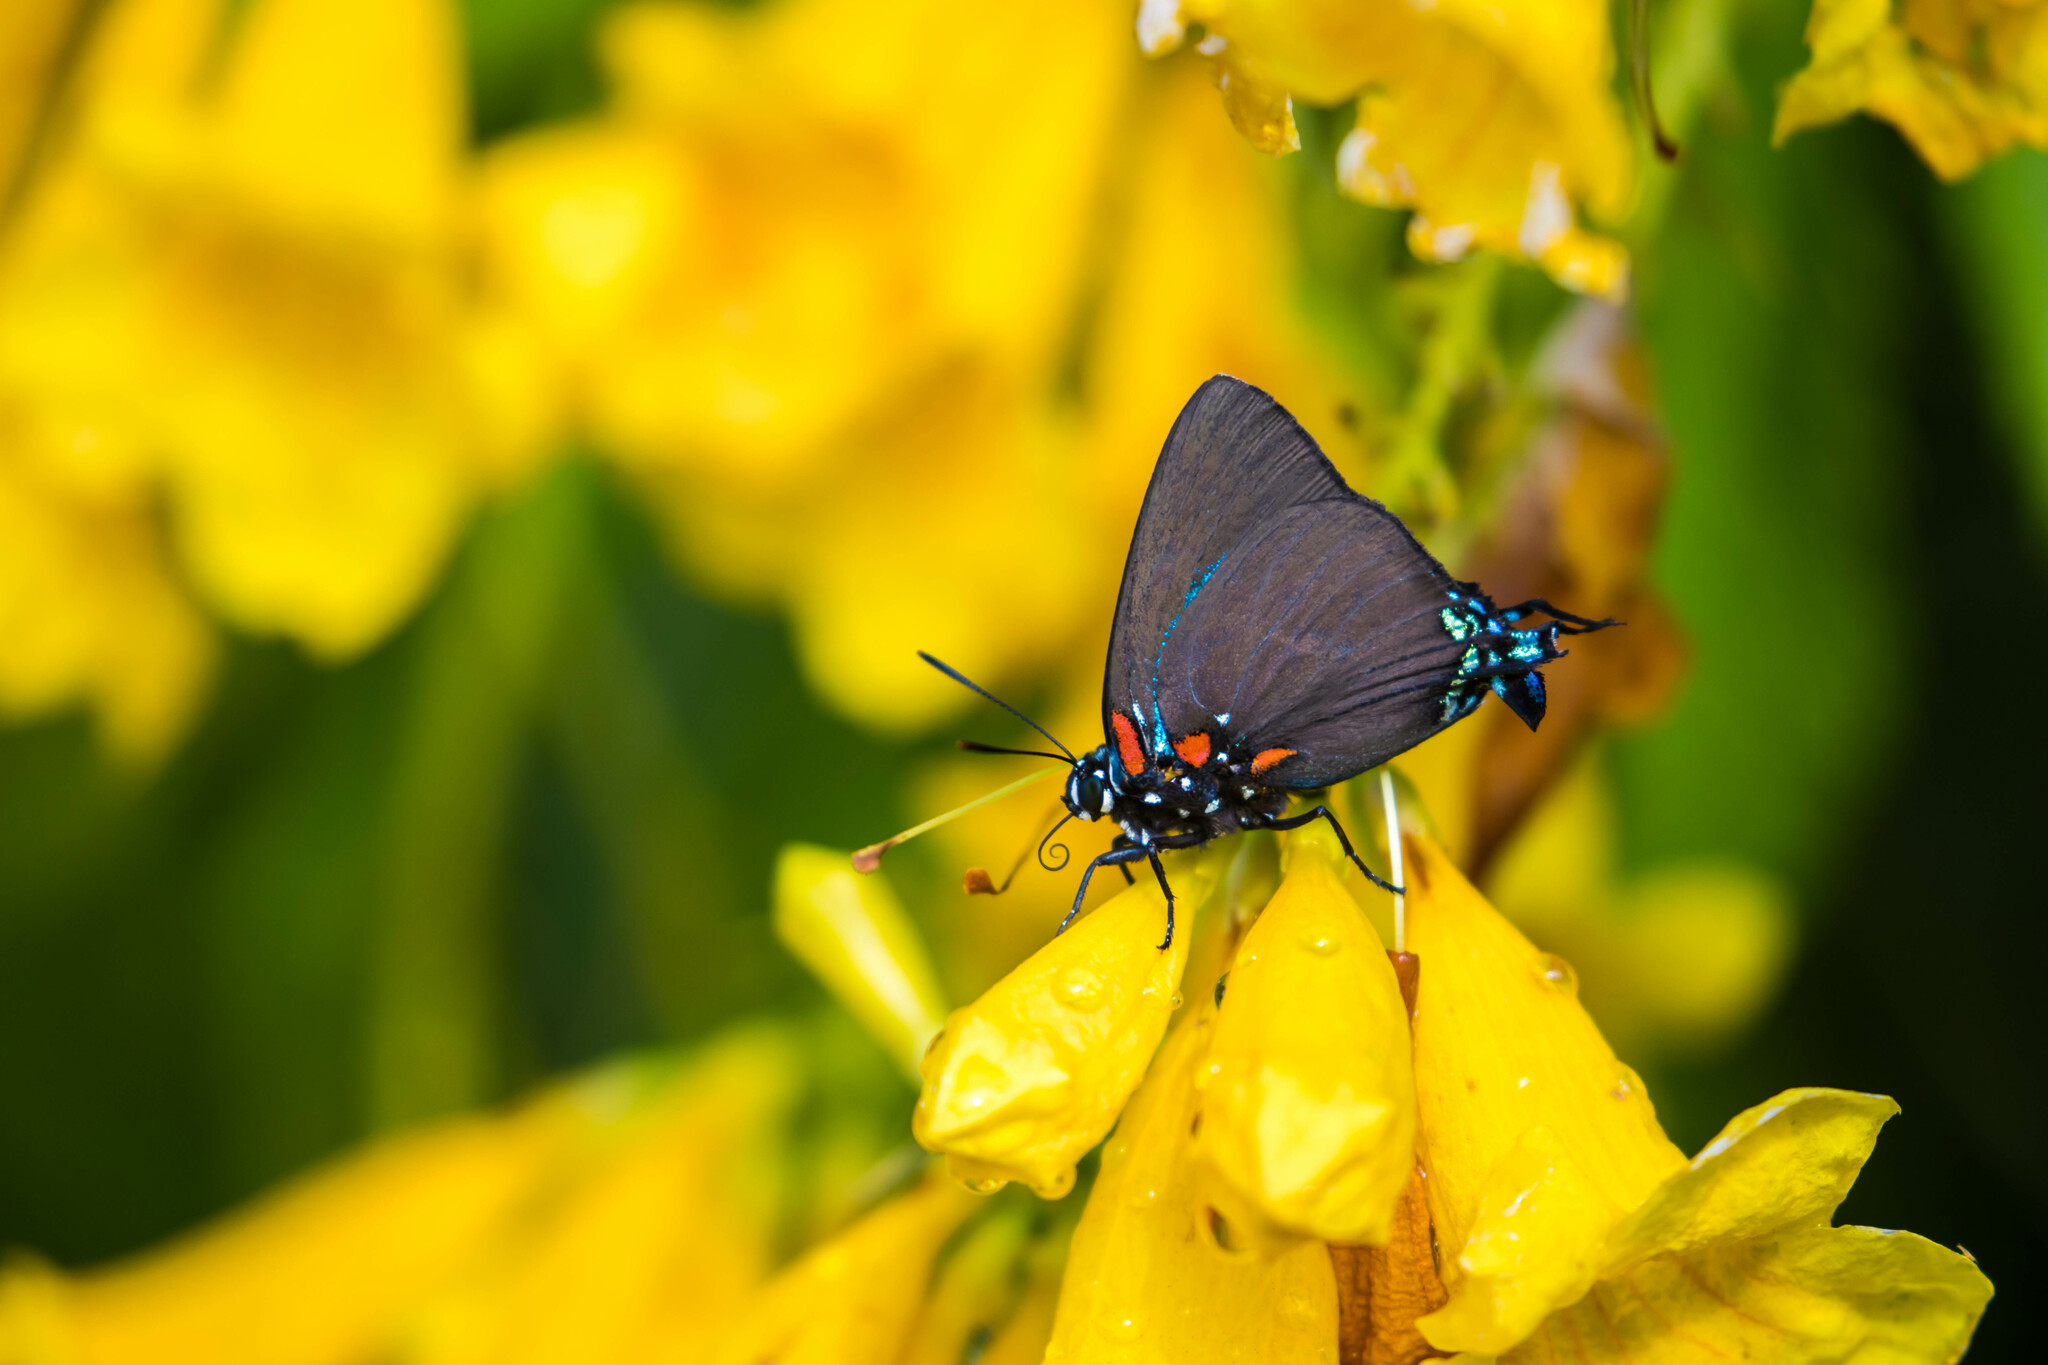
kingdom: Animalia
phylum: Arthropoda
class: Insecta
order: Lepidoptera
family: Lycaenidae
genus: Atlides
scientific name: Atlides halesus
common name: Great purple hairstreak
